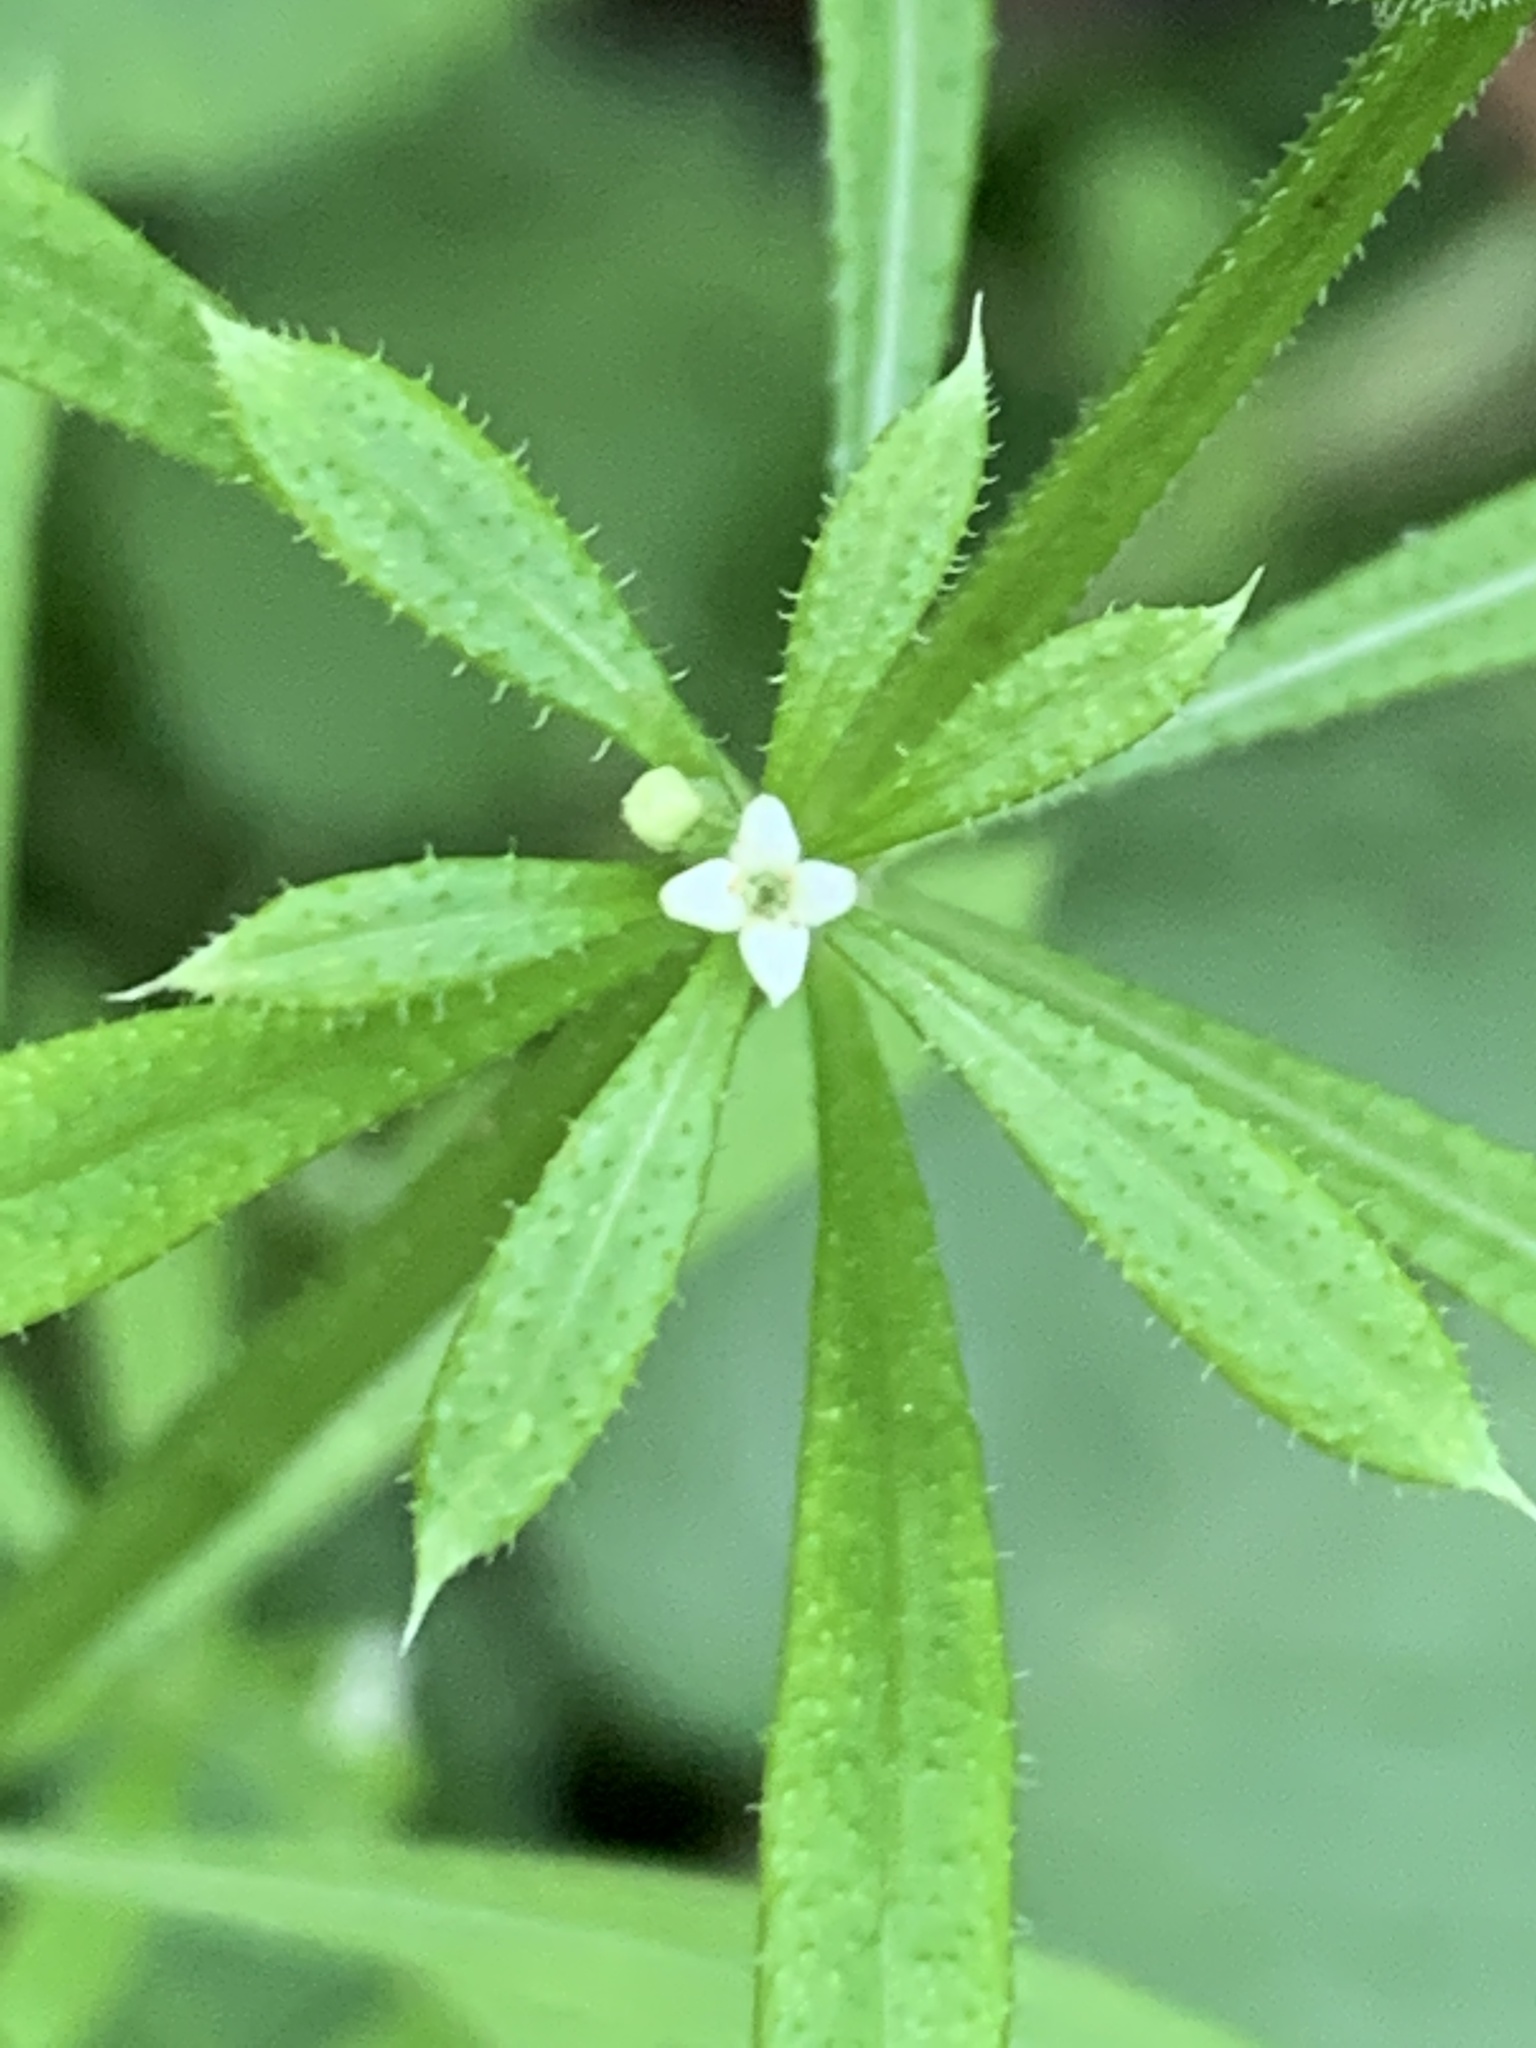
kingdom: Plantae
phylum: Tracheophyta
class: Magnoliopsida
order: Gentianales
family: Rubiaceae
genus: Galium
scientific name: Galium aparine
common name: Cleavers
